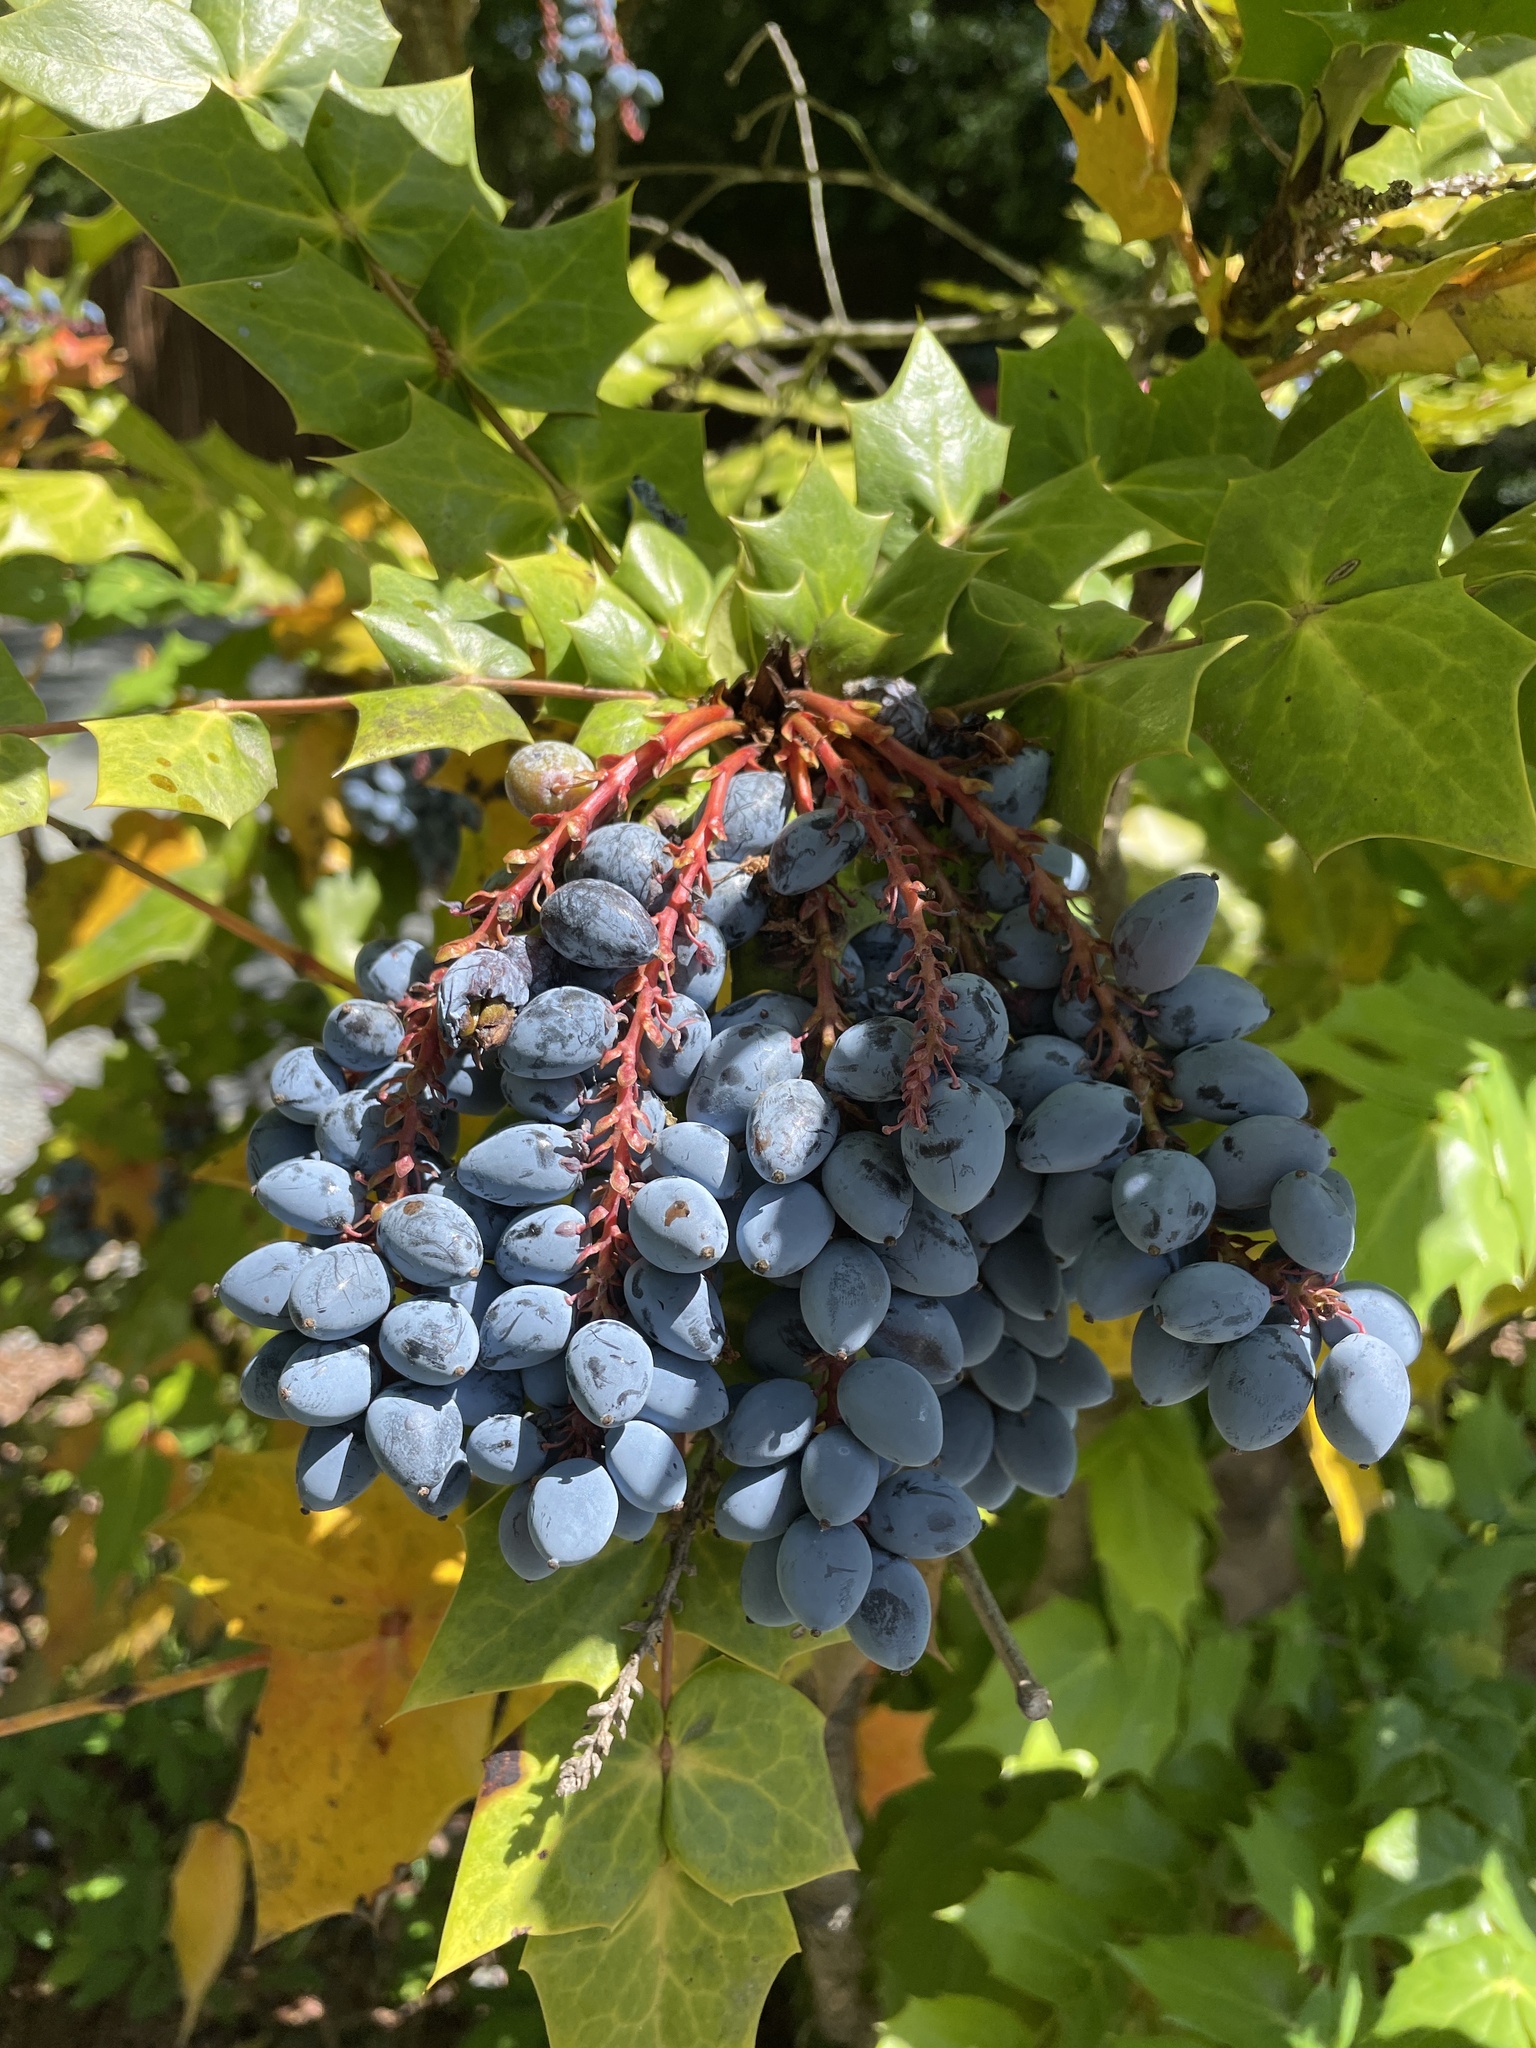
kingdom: Plantae
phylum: Tracheophyta
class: Magnoliopsida
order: Ranunculales
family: Berberidaceae
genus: Mahonia
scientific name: Mahonia bealei
